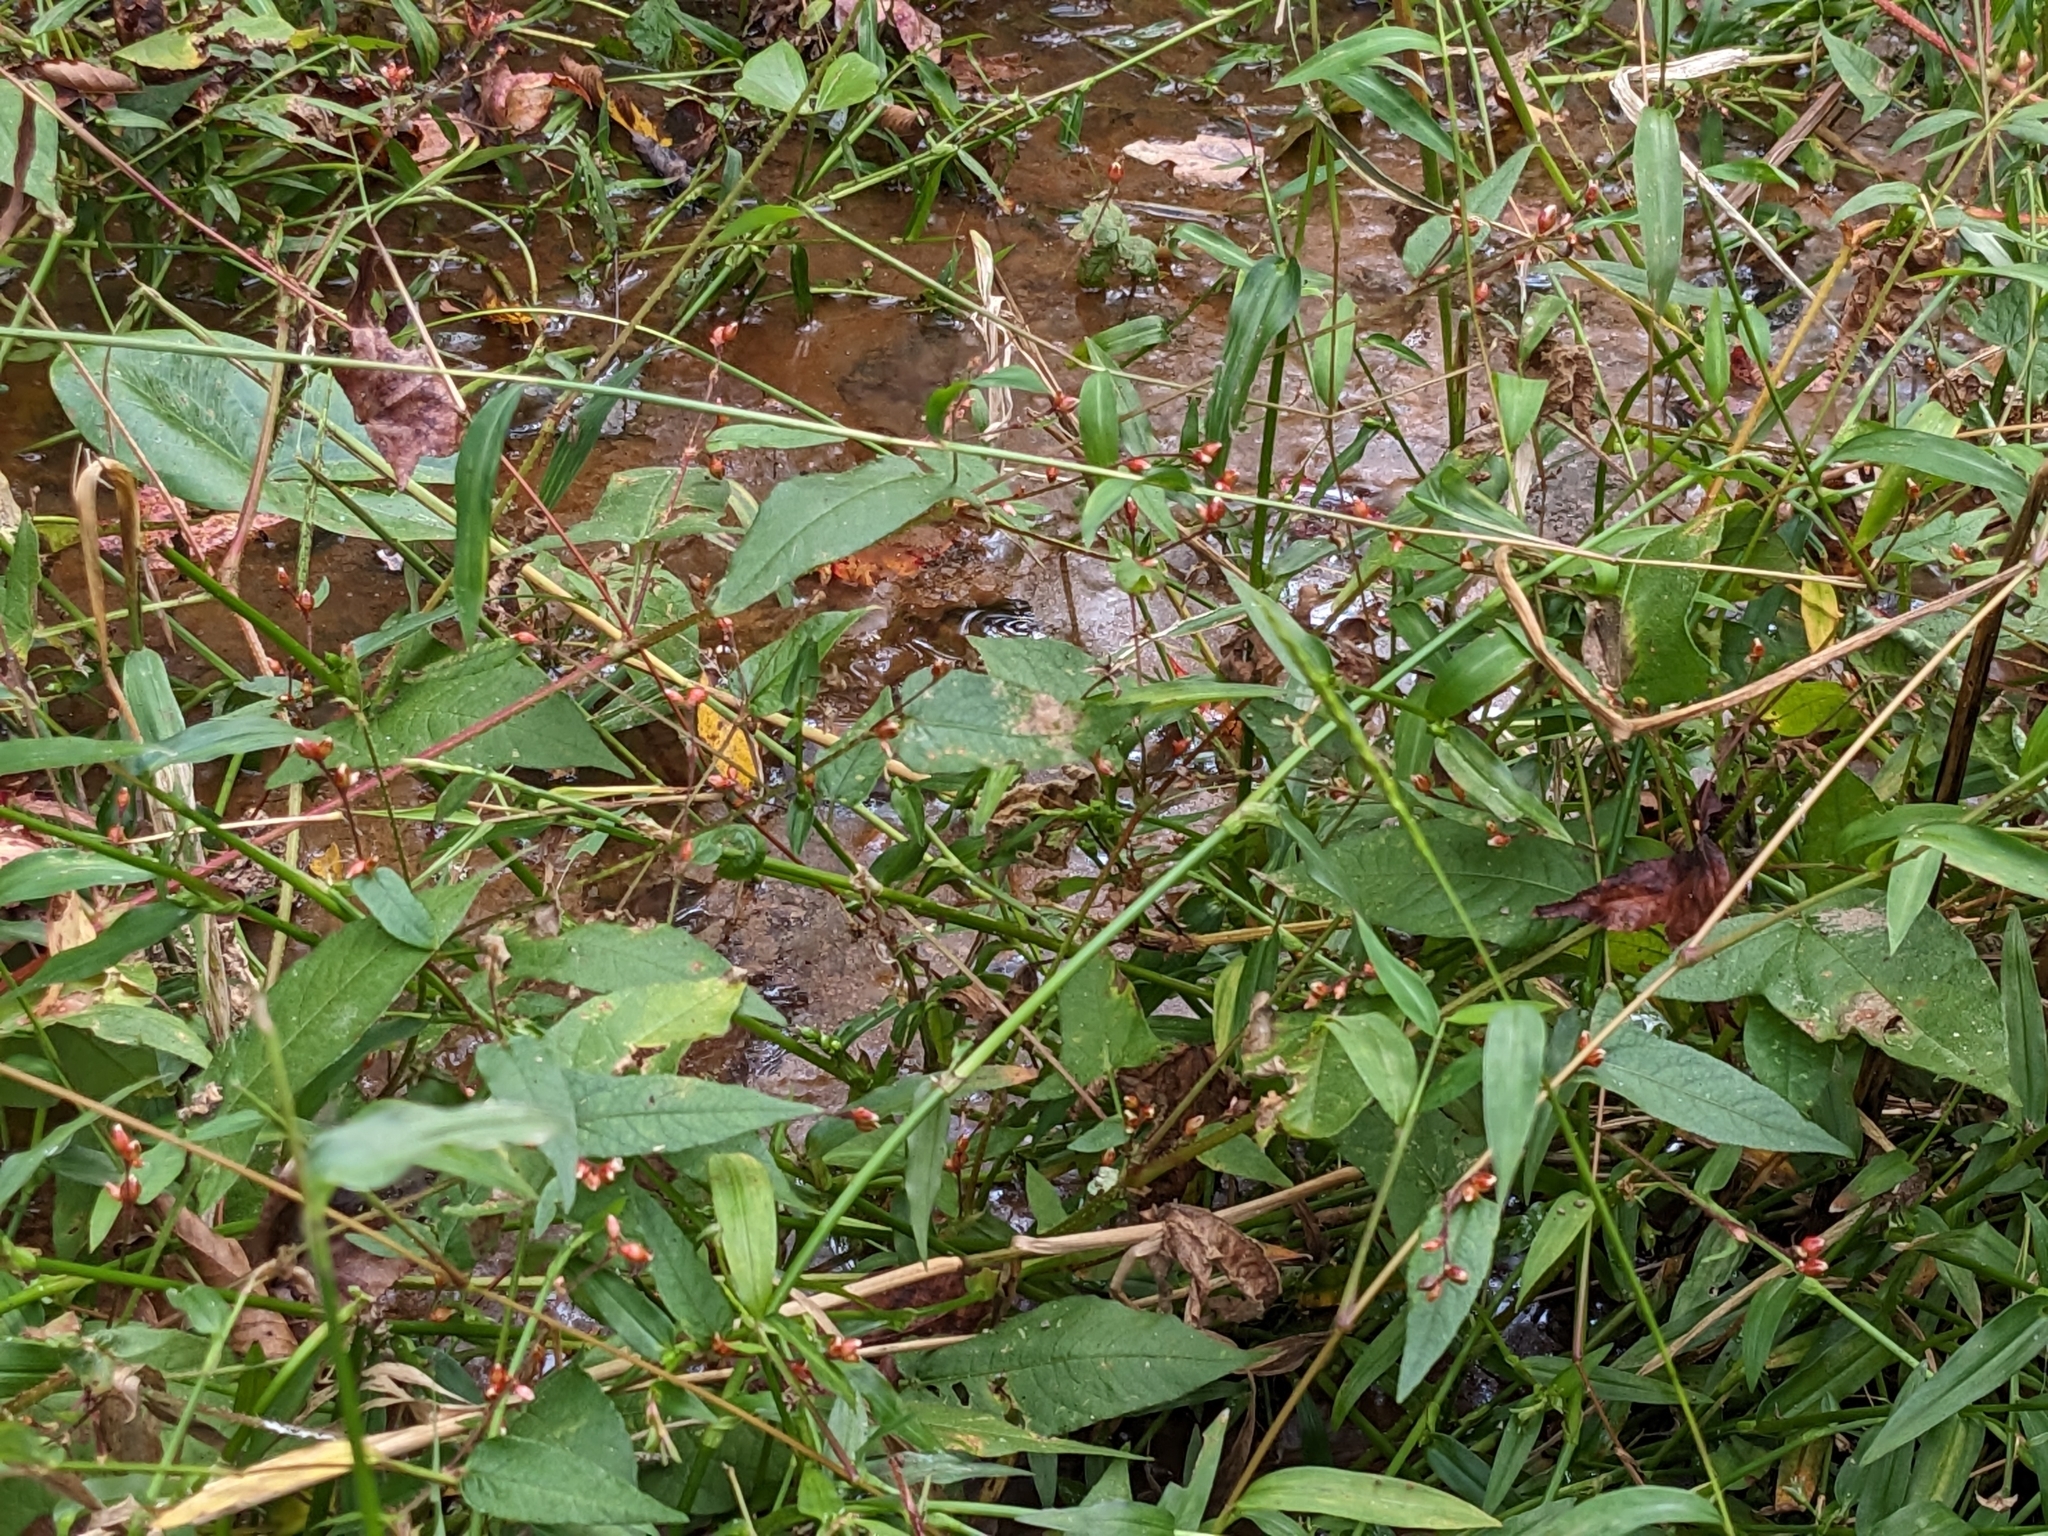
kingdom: Plantae
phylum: Tracheophyta
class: Magnoliopsida
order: Caryophyllales
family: Polygonaceae
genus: Persicaria
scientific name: Persicaria arifolia
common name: Halberd-leaved tear-thumb
